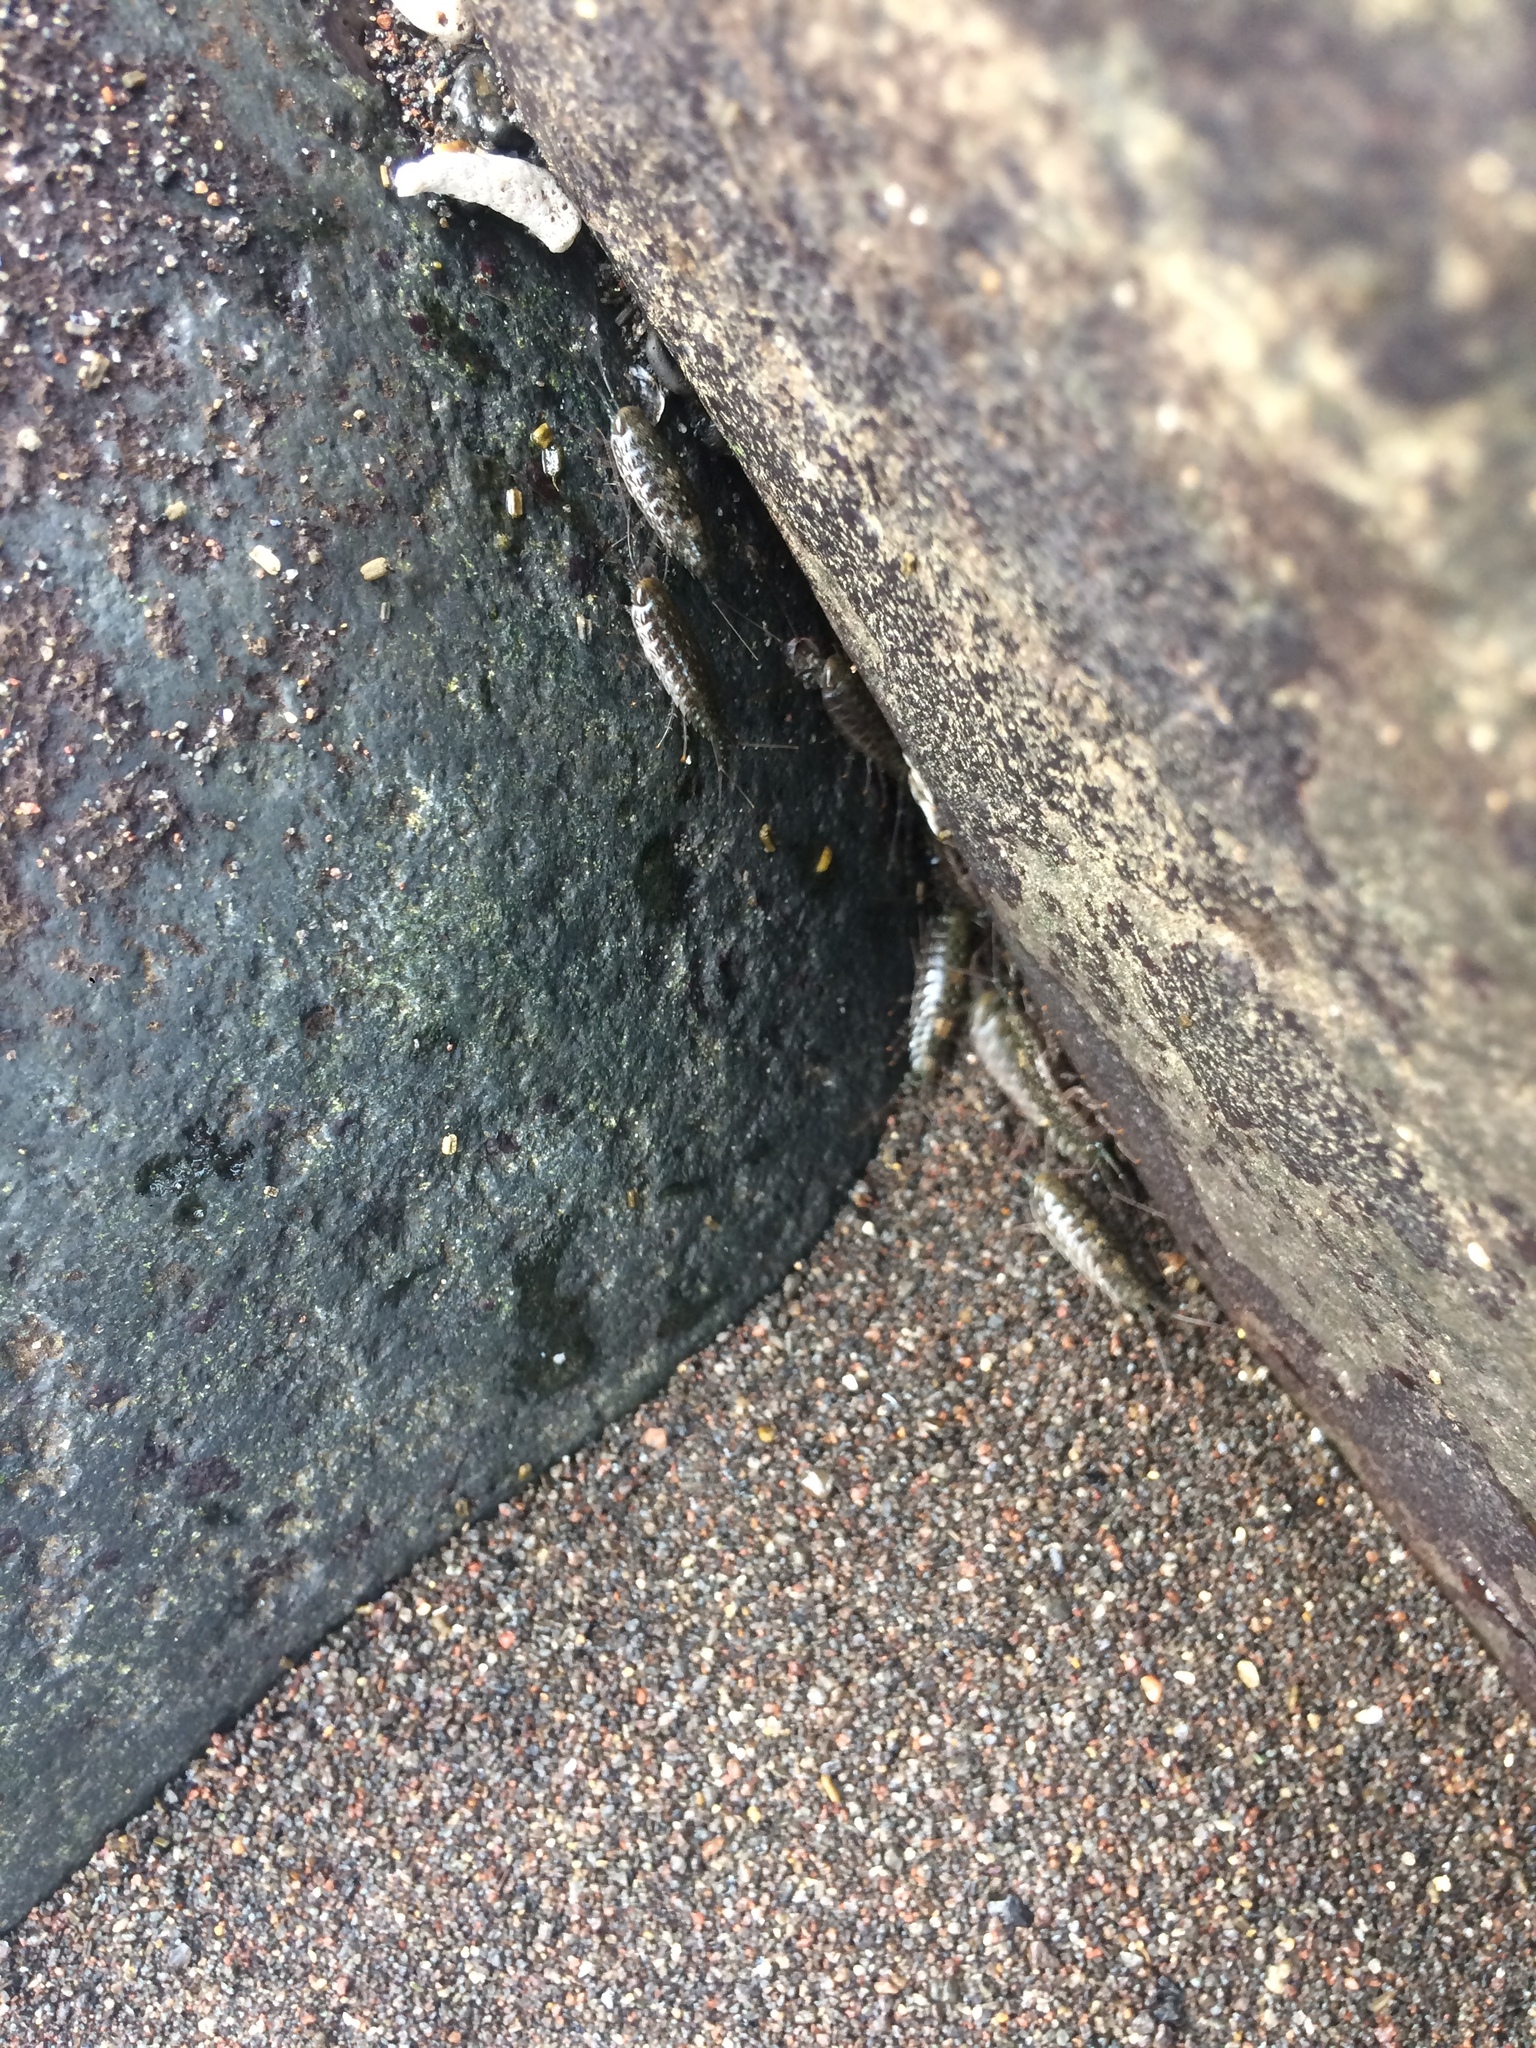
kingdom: Animalia
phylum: Arthropoda
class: Malacostraca
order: Isopoda
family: Ligiidae
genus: Ligia
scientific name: Ligia exotica
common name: Wharf roach
